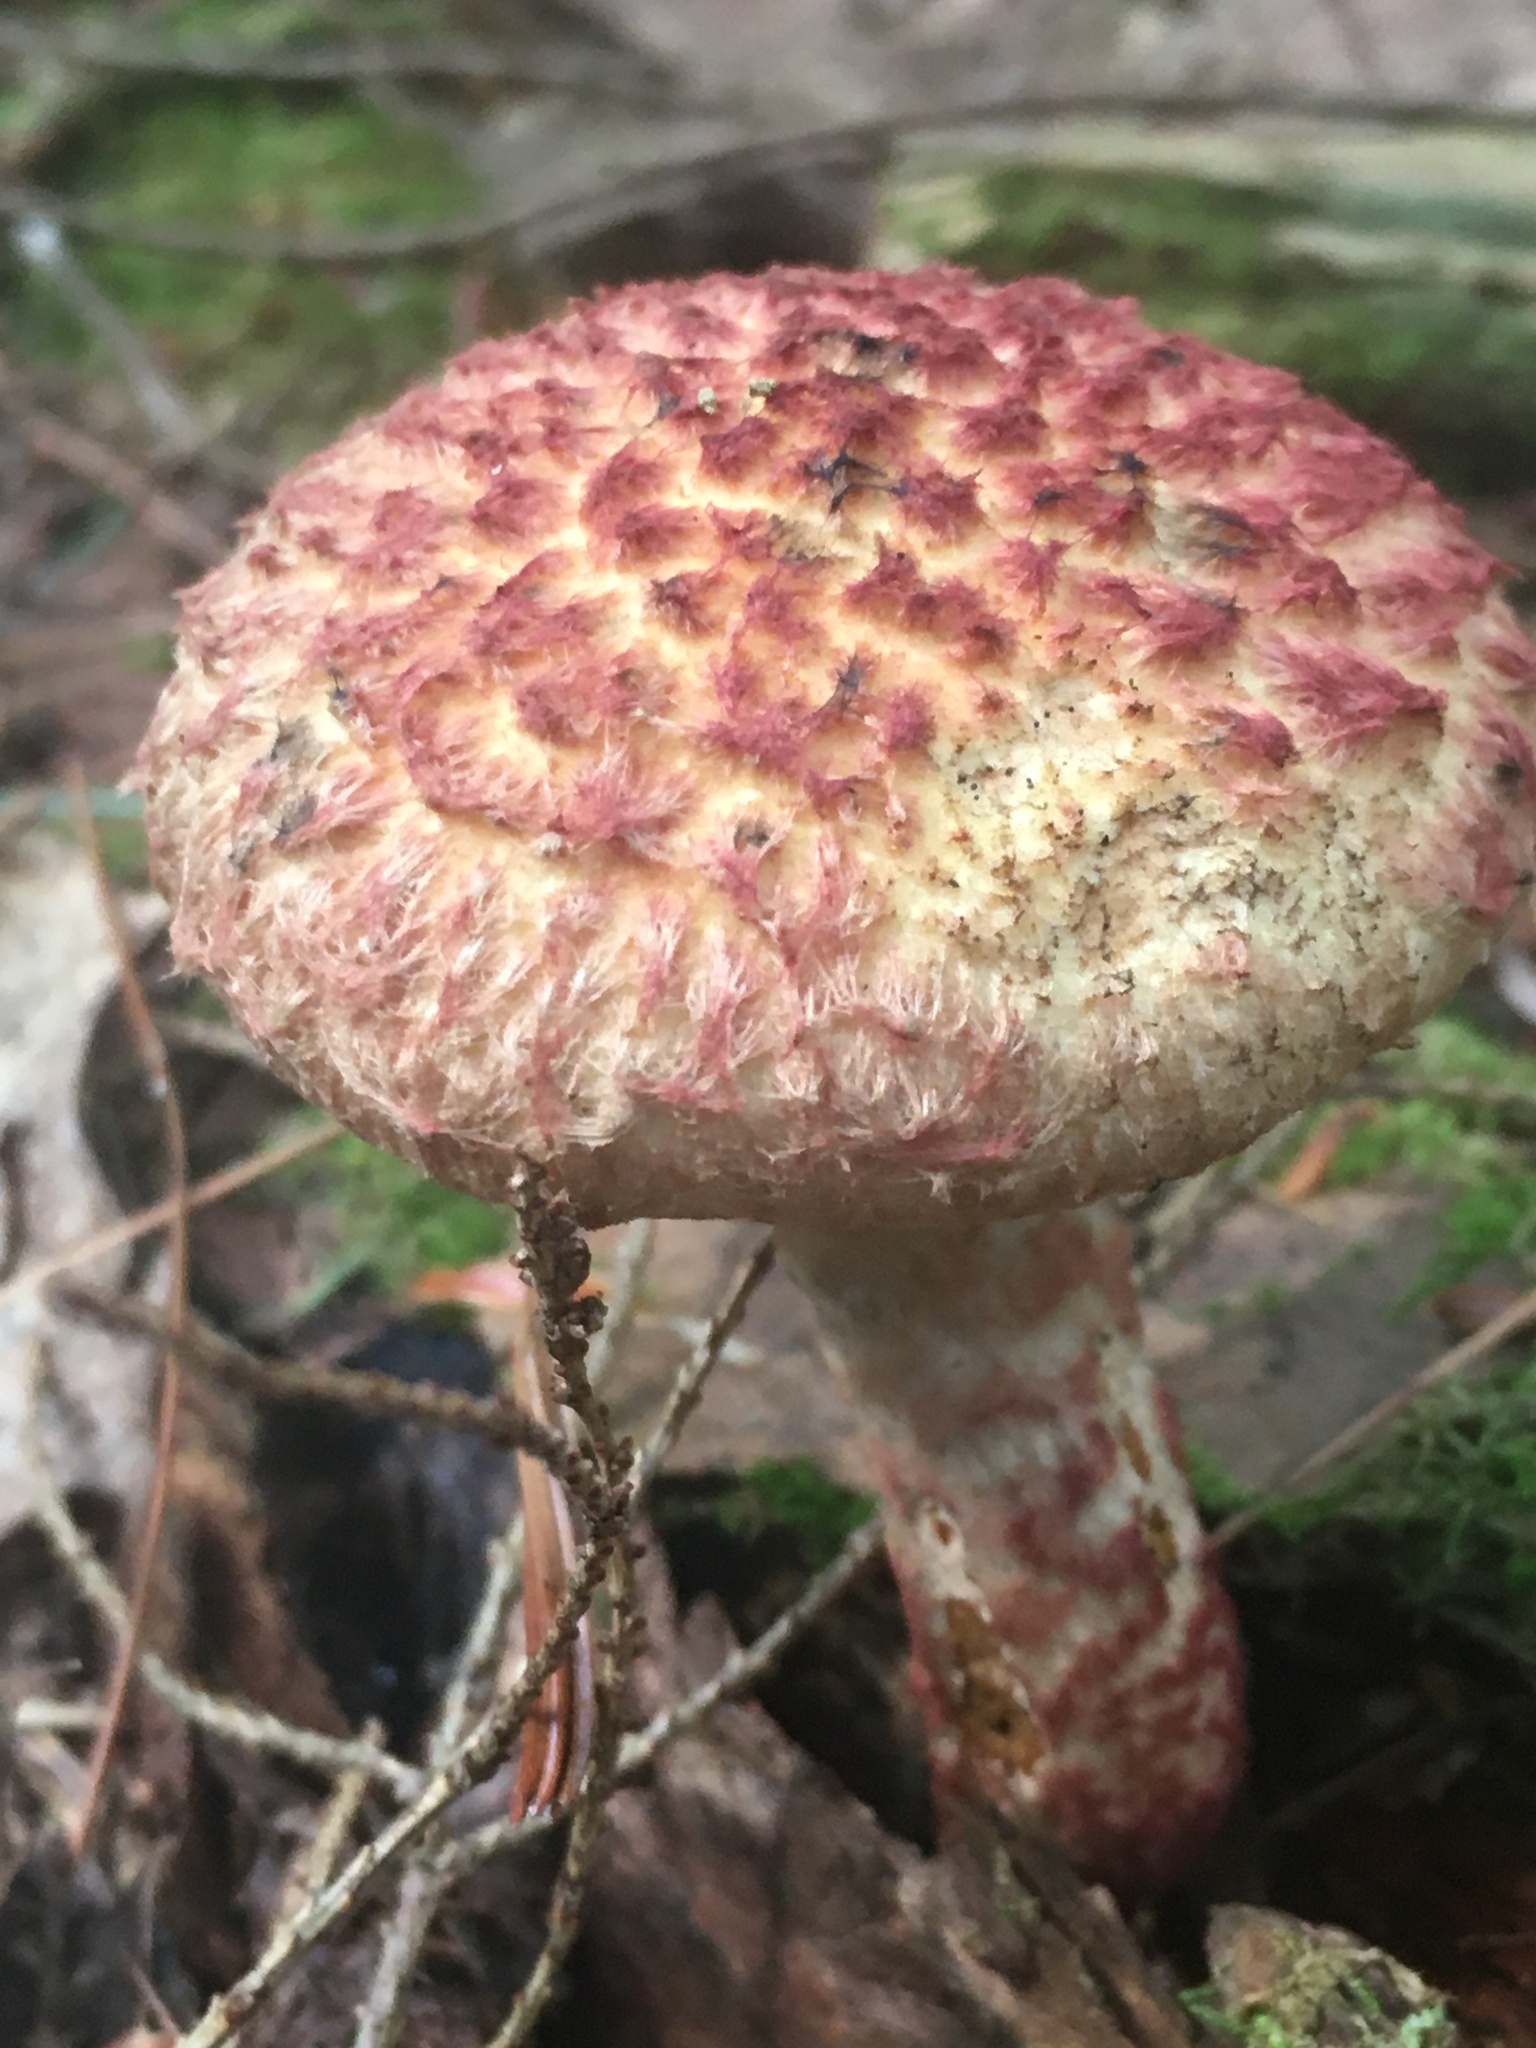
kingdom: Fungi
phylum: Basidiomycota
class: Agaricomycetes
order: Boletales
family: Suillaceae
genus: Suillus
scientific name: Suillus spraguei
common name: Painted suillus
